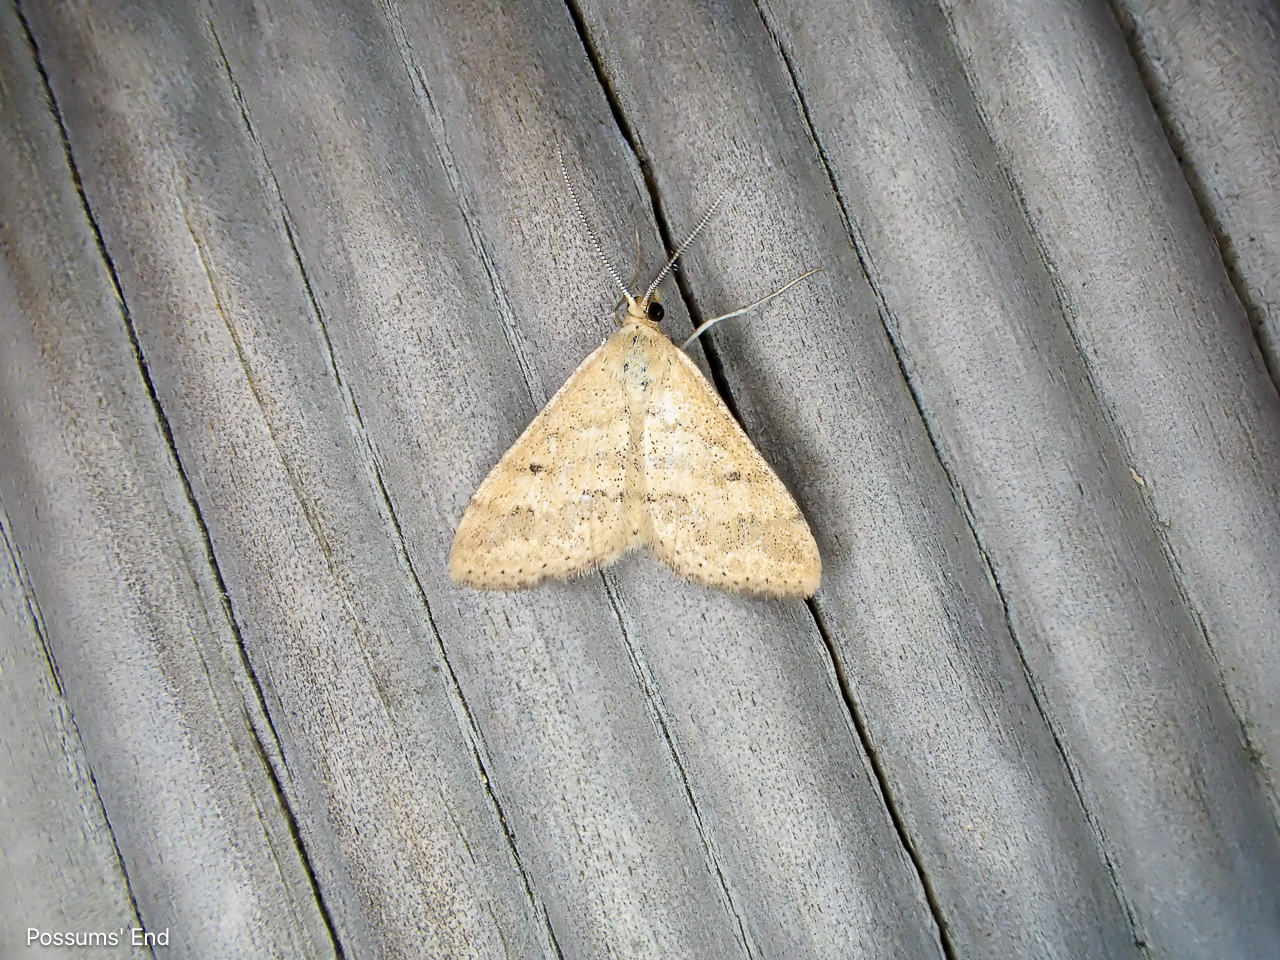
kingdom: Animalia
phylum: Arthropoda
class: Insecta
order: Lepidoptera
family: Geometridae
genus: Scopula
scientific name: Scopula rubraria
